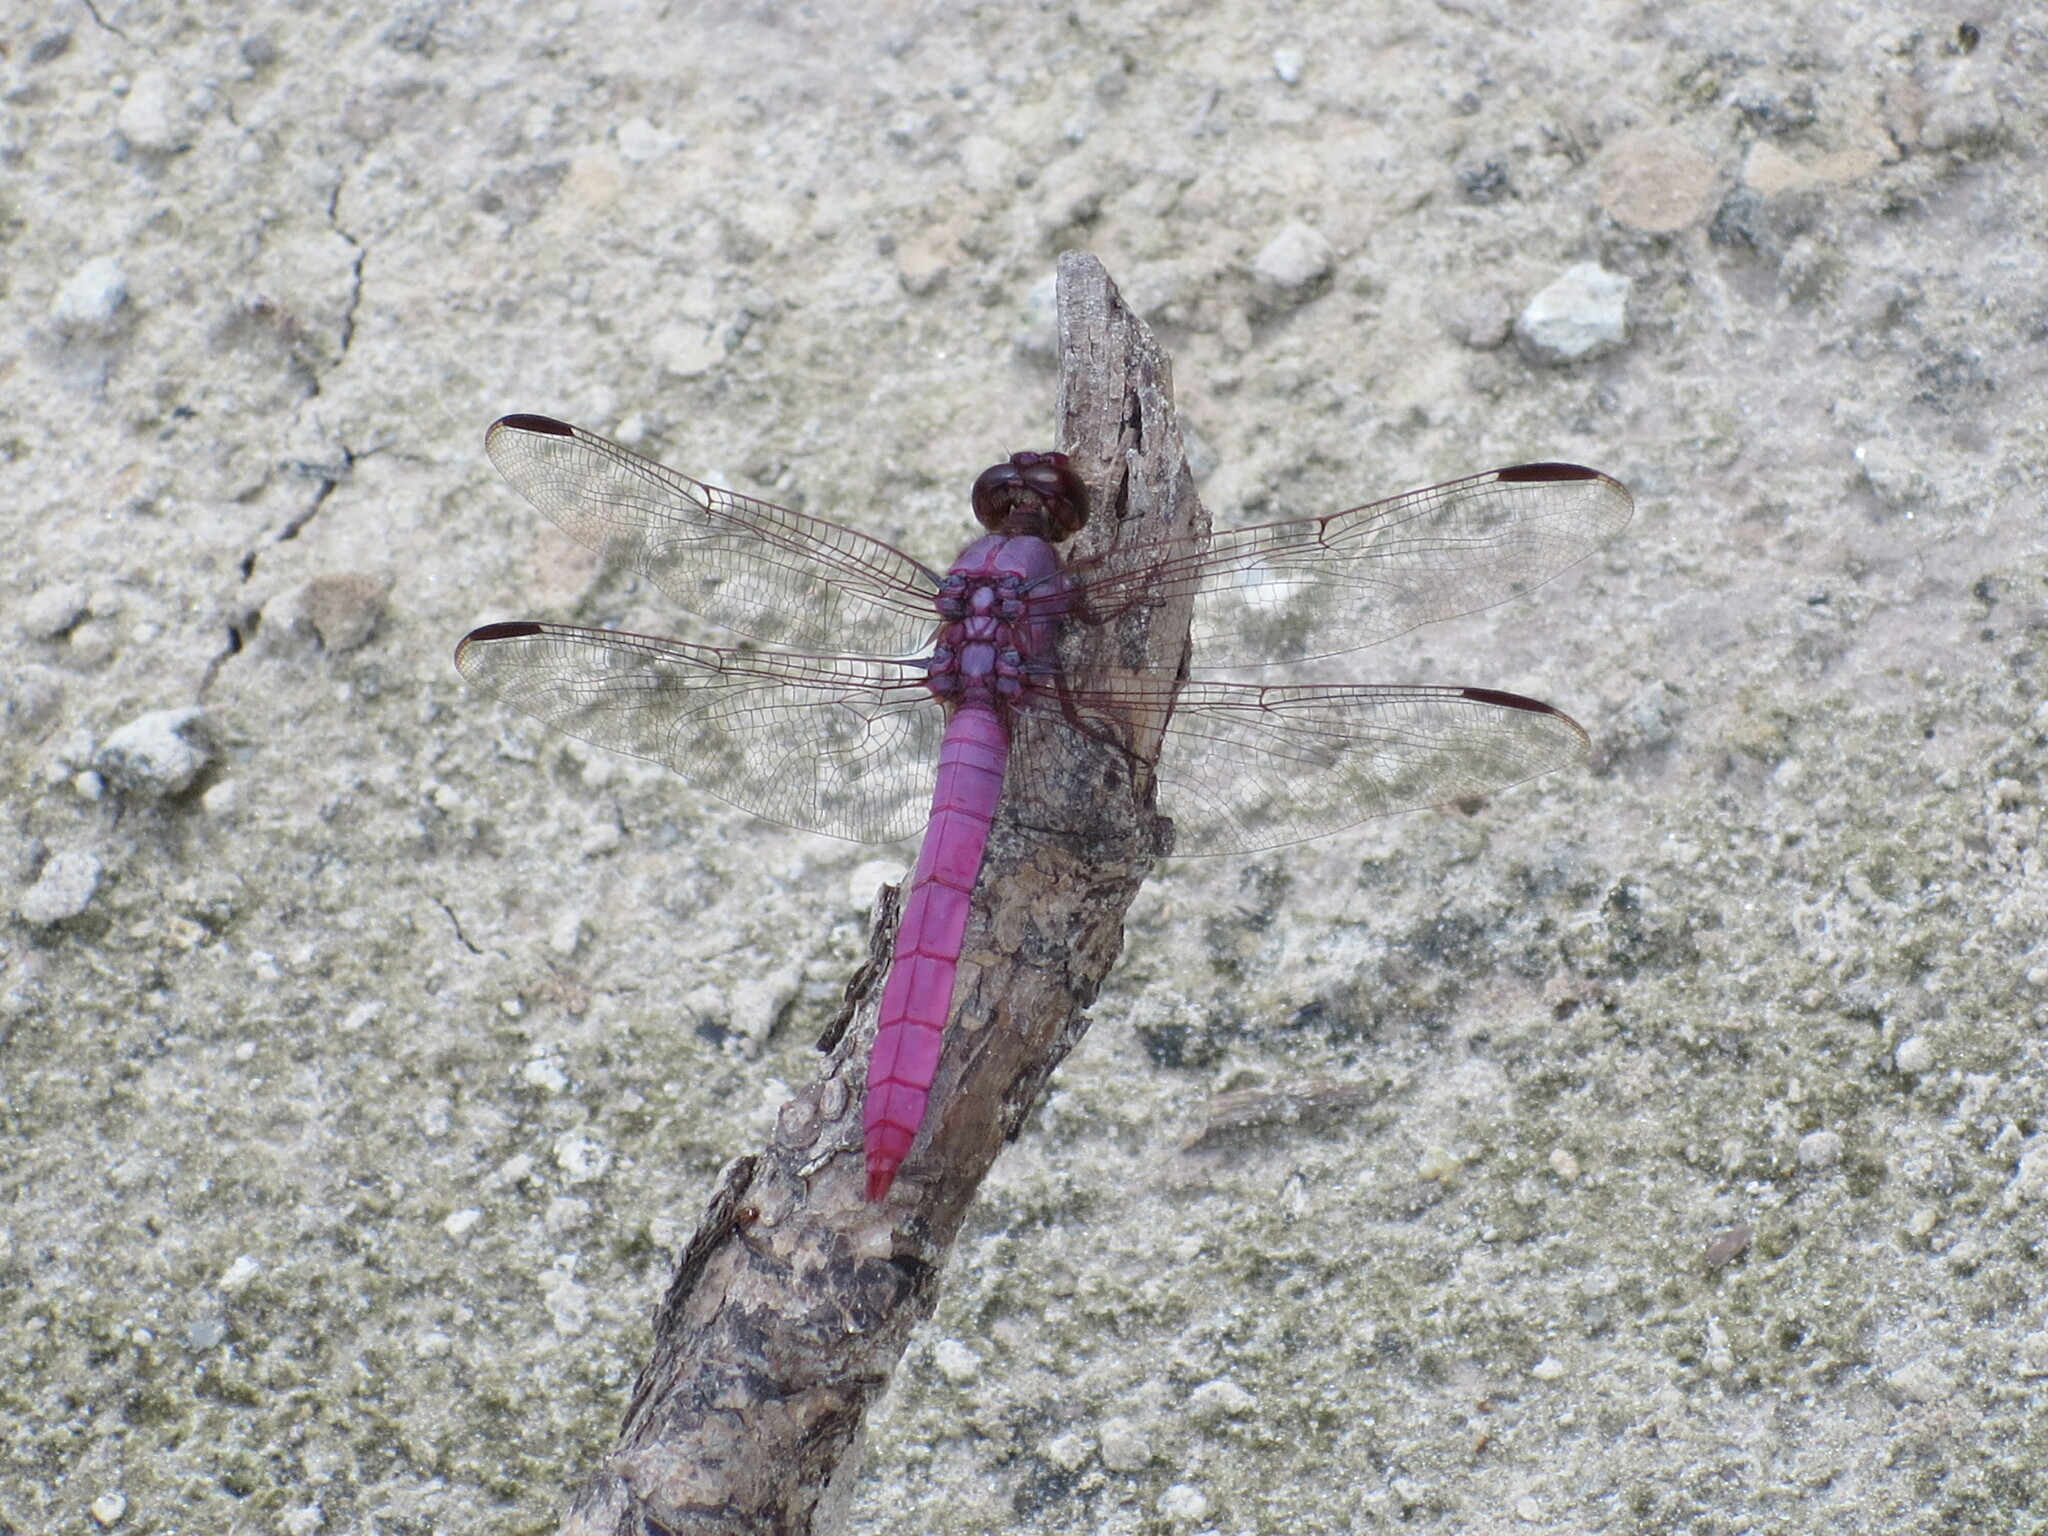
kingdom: Animalia
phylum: Arthropoda
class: Insecta
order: Odonata
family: Libellulidae
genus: Orthemis
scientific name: Orthemis ferruginea
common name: Roseate skimmer
